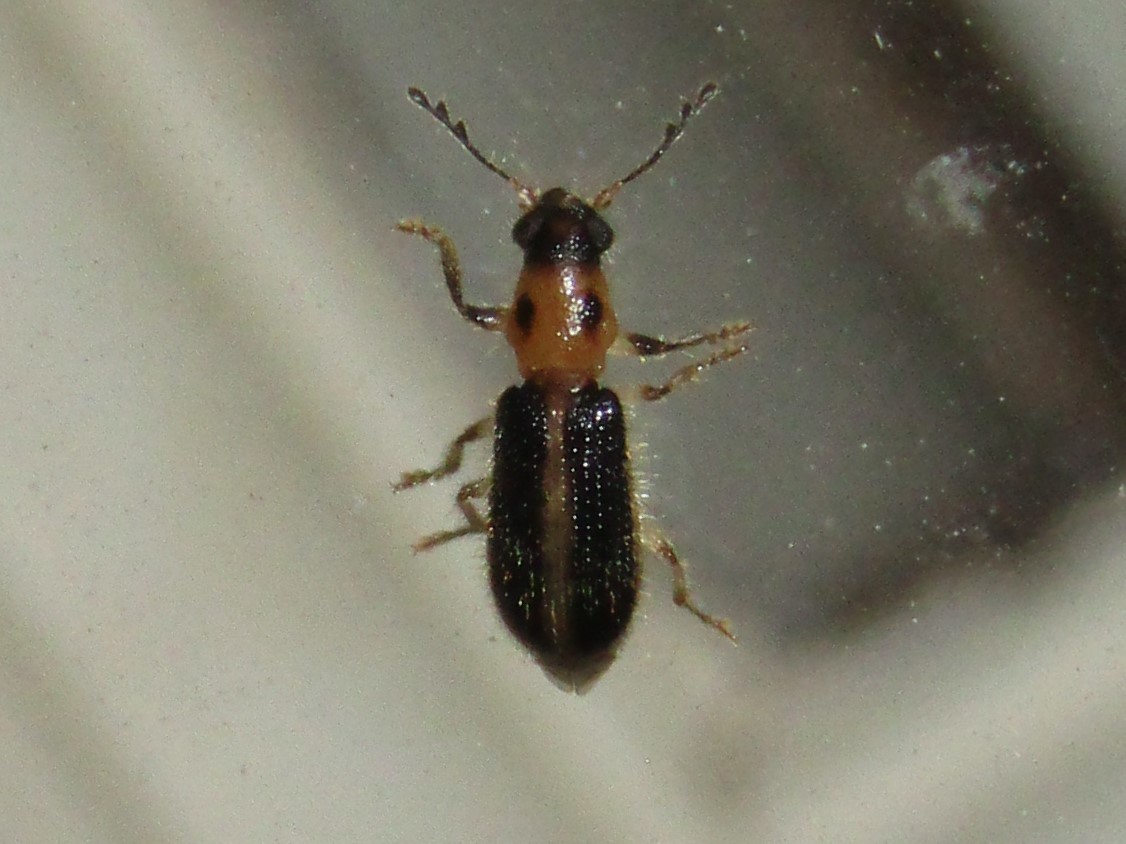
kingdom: Animalia
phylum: Arthropoda
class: Insecta
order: Coleoptera
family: Cleridae
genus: Cregya
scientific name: Cregya oculata
